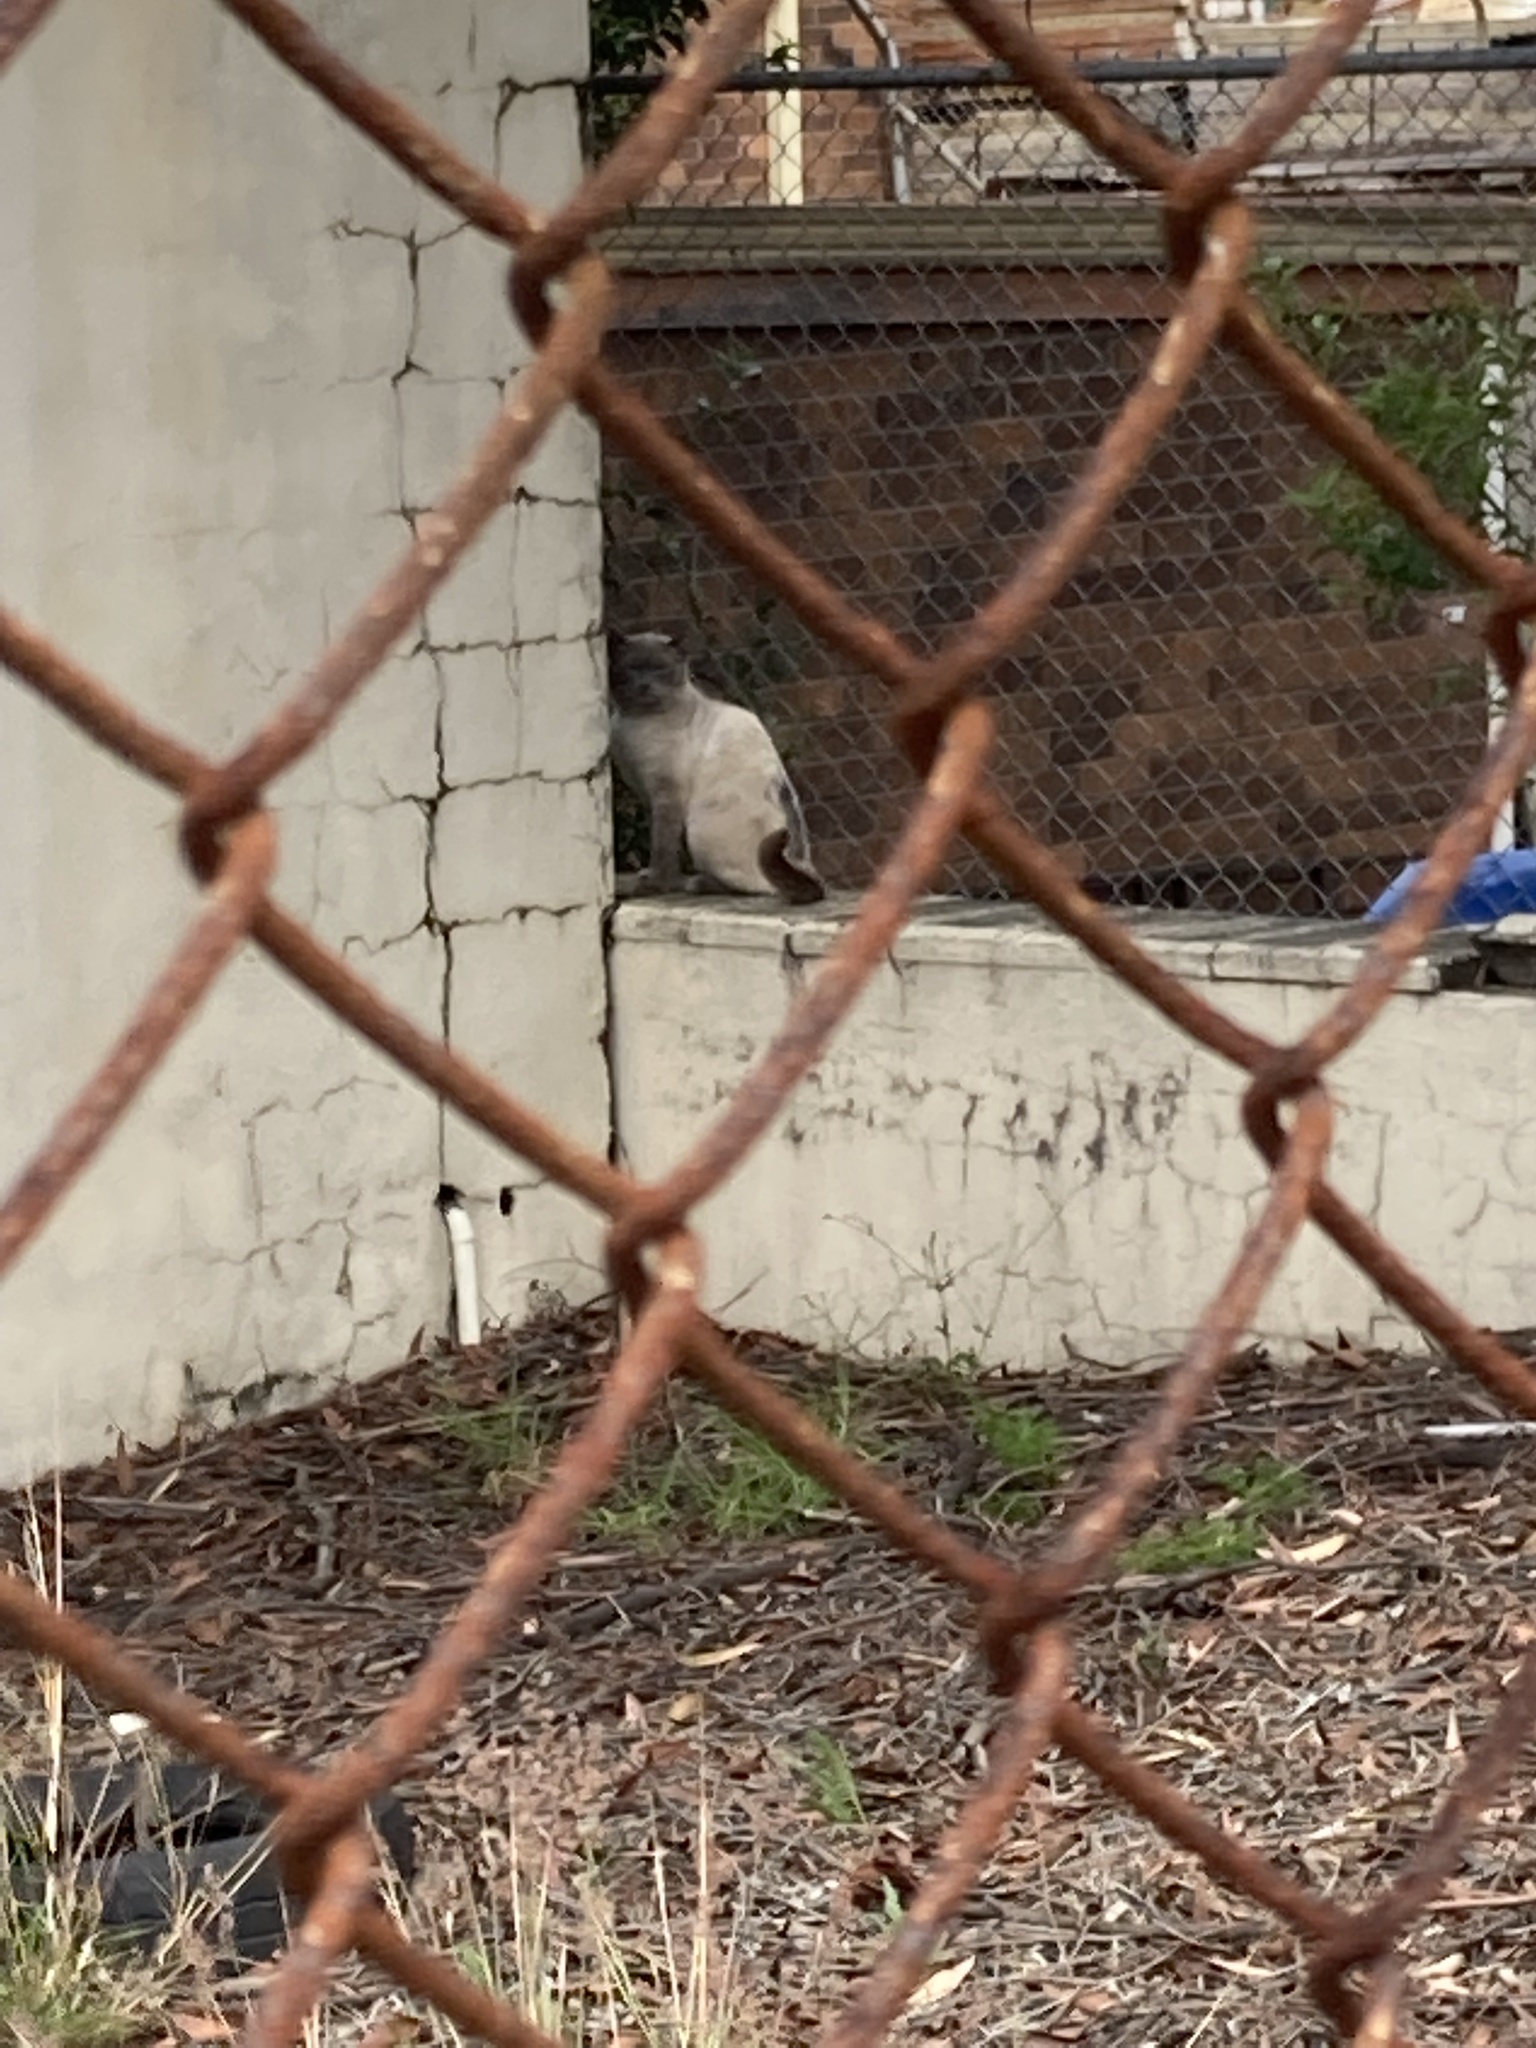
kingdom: Animalia
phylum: Chordata
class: Mammalia
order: Carnivora
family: Felidae
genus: Felis
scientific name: Felis catus
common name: Domestic cat
